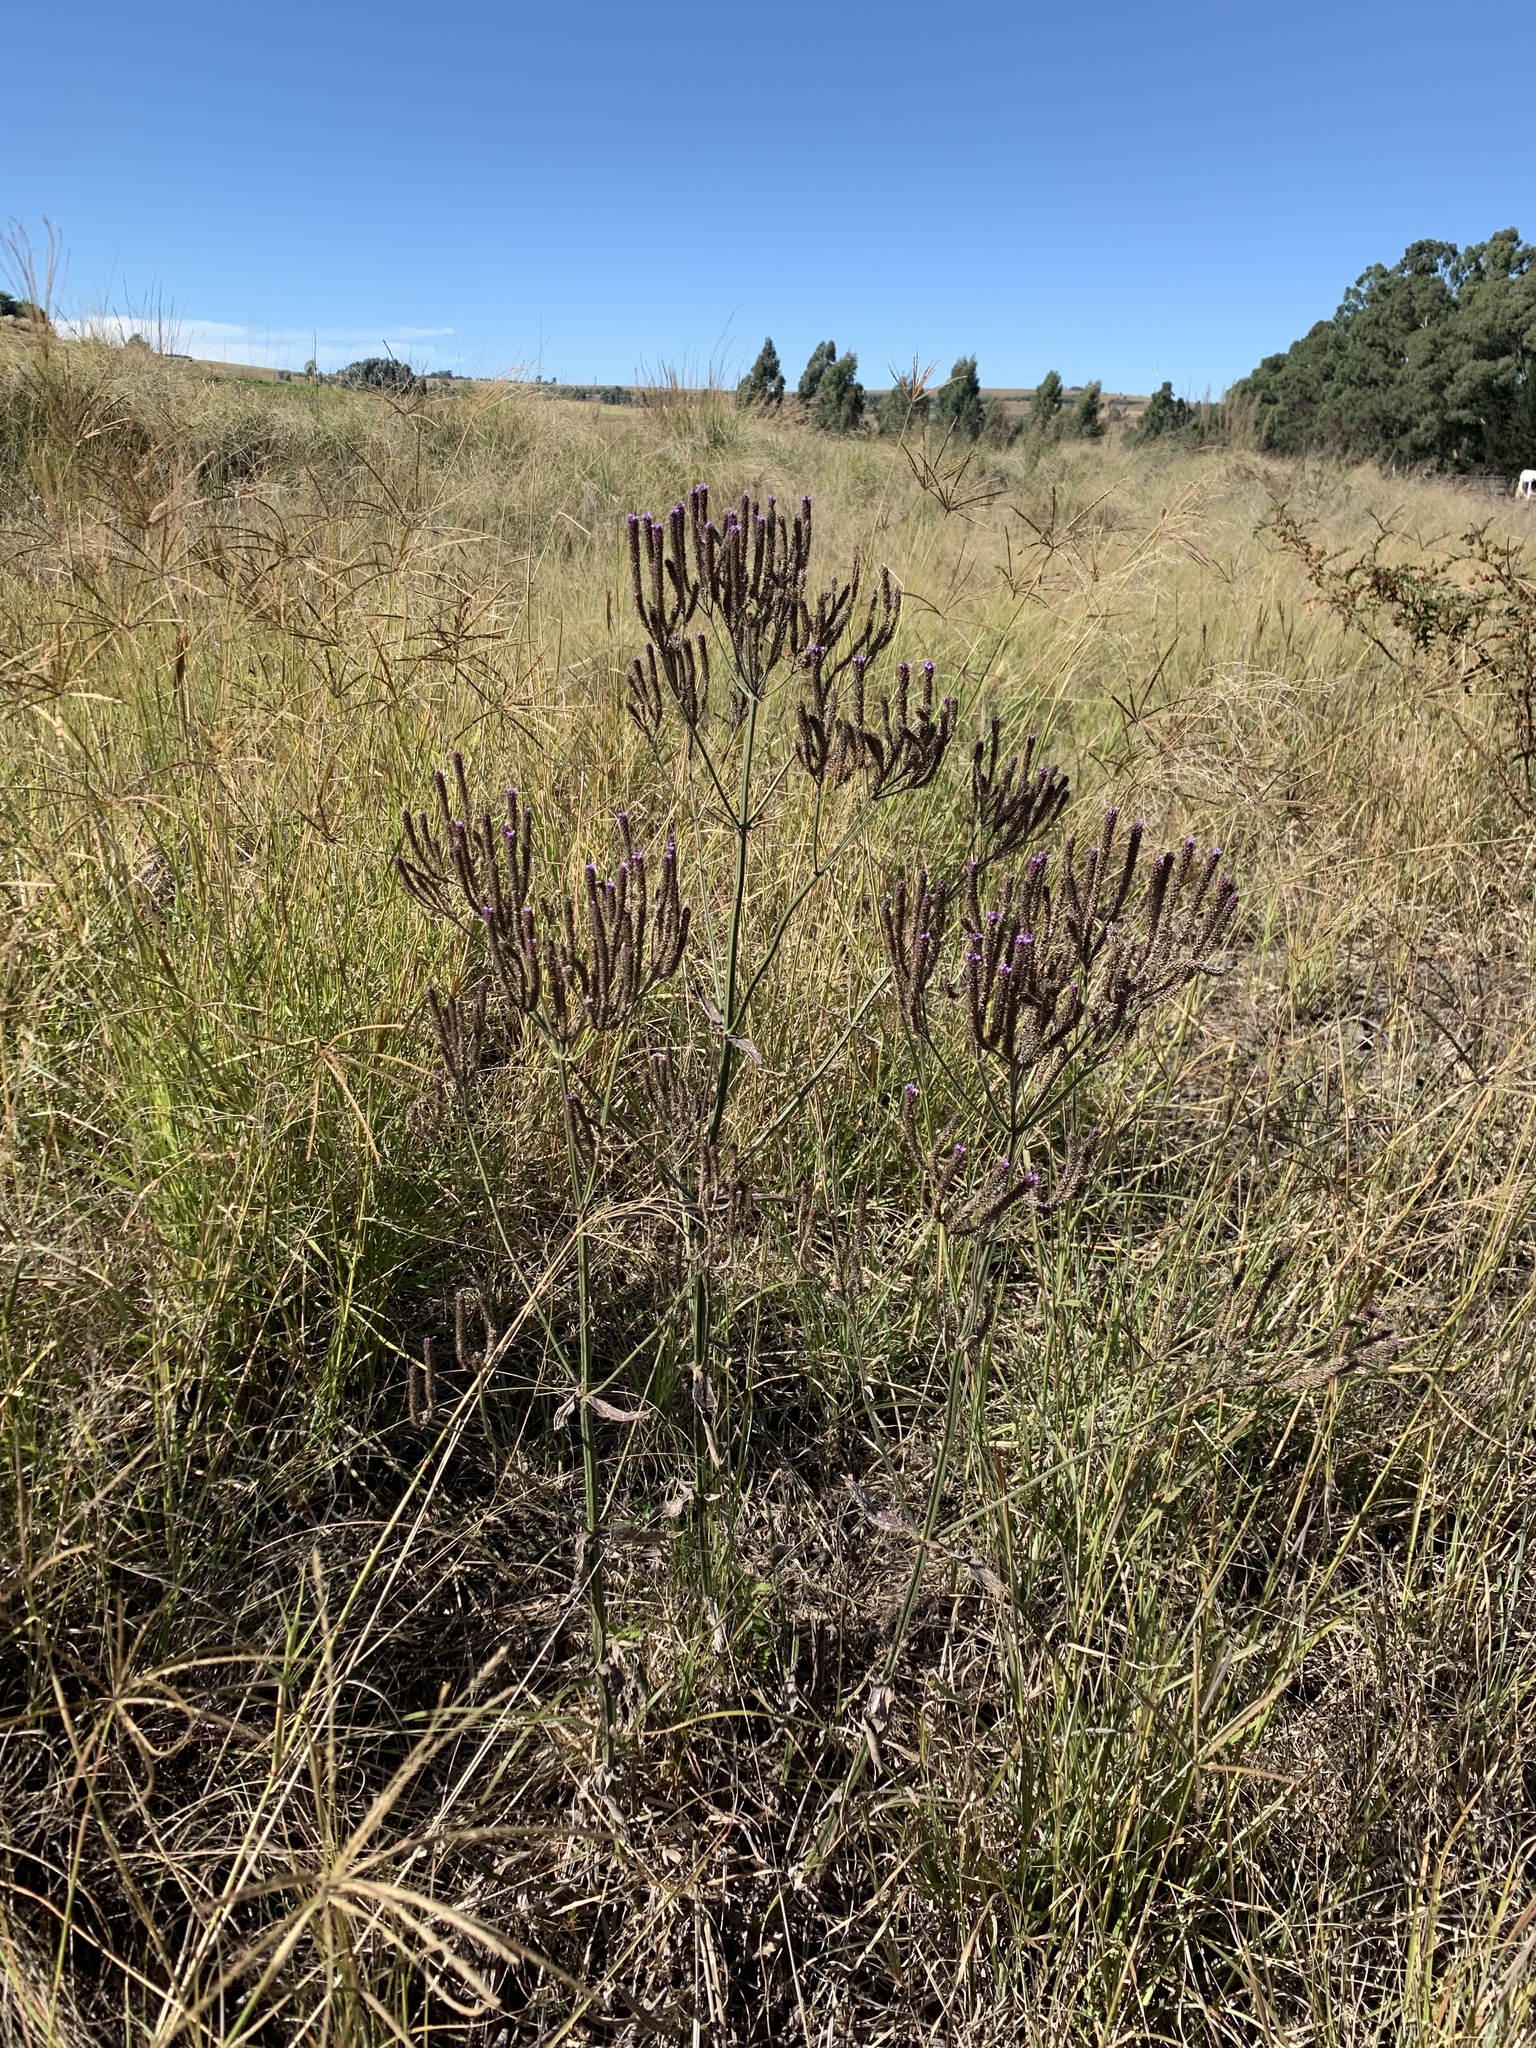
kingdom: Plantae
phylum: Tracheophyta
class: Magnoliopsida
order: Lamiales
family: Verbenaceae
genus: Verbena
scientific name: Verbena bonariensis
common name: Purpletop vervain
